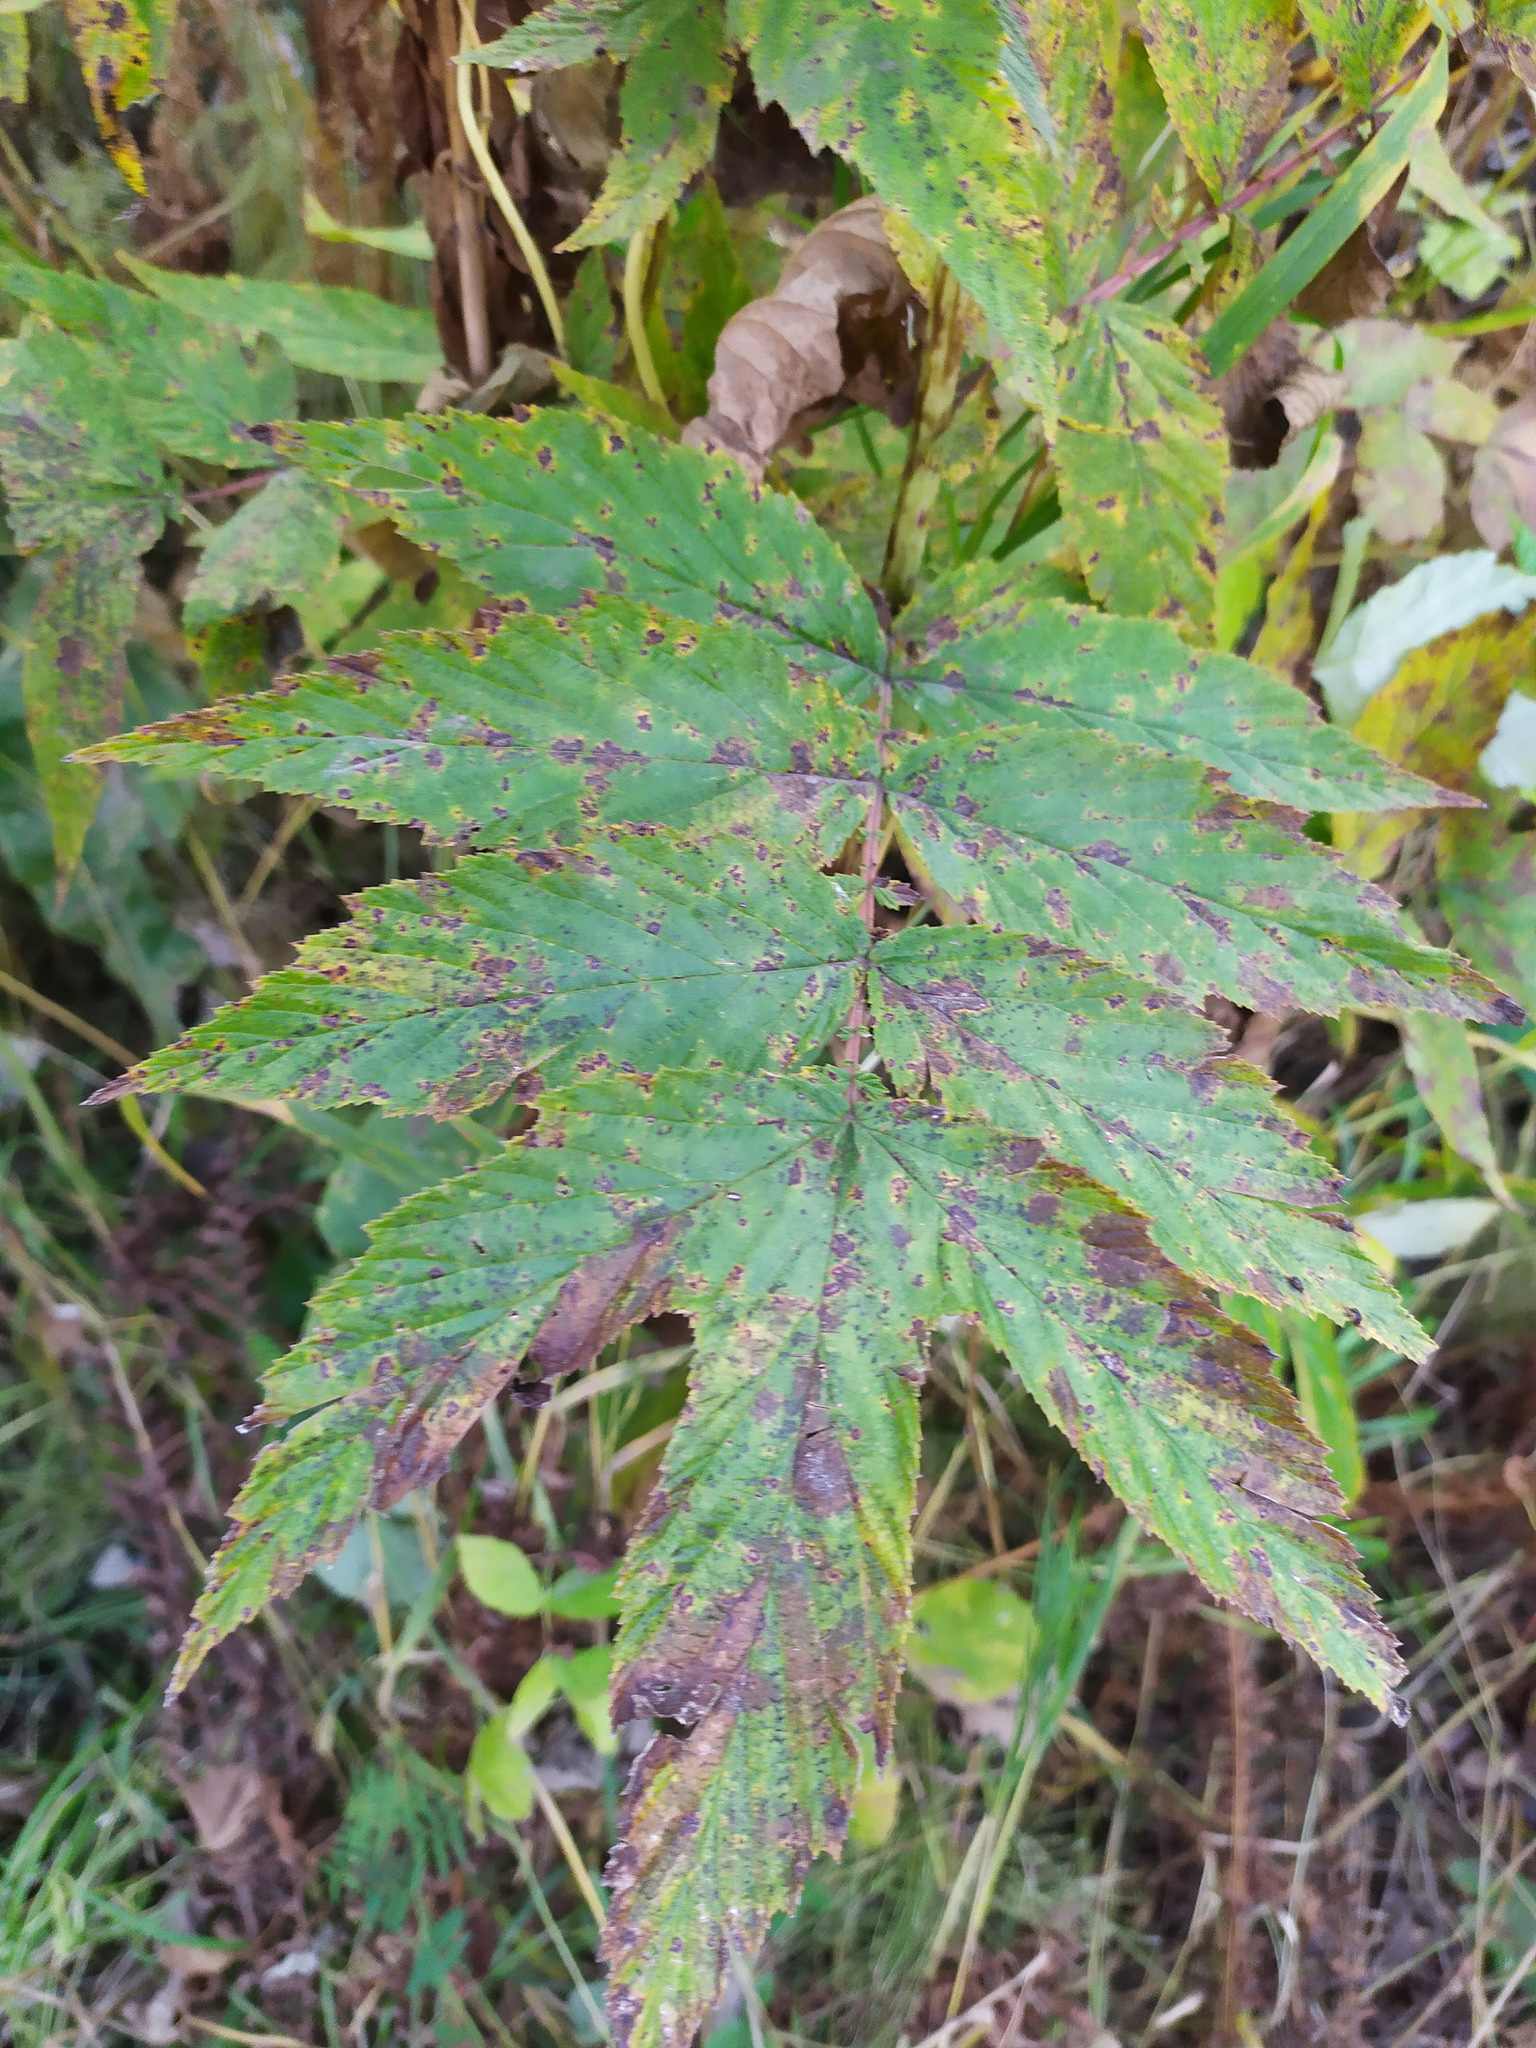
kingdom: Plantae
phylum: Tracheophyta
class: Magnoliopsida
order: Rosales
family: Rosaceae
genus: Filipendula
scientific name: Filipendula ulmaria
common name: Meadowsweet
